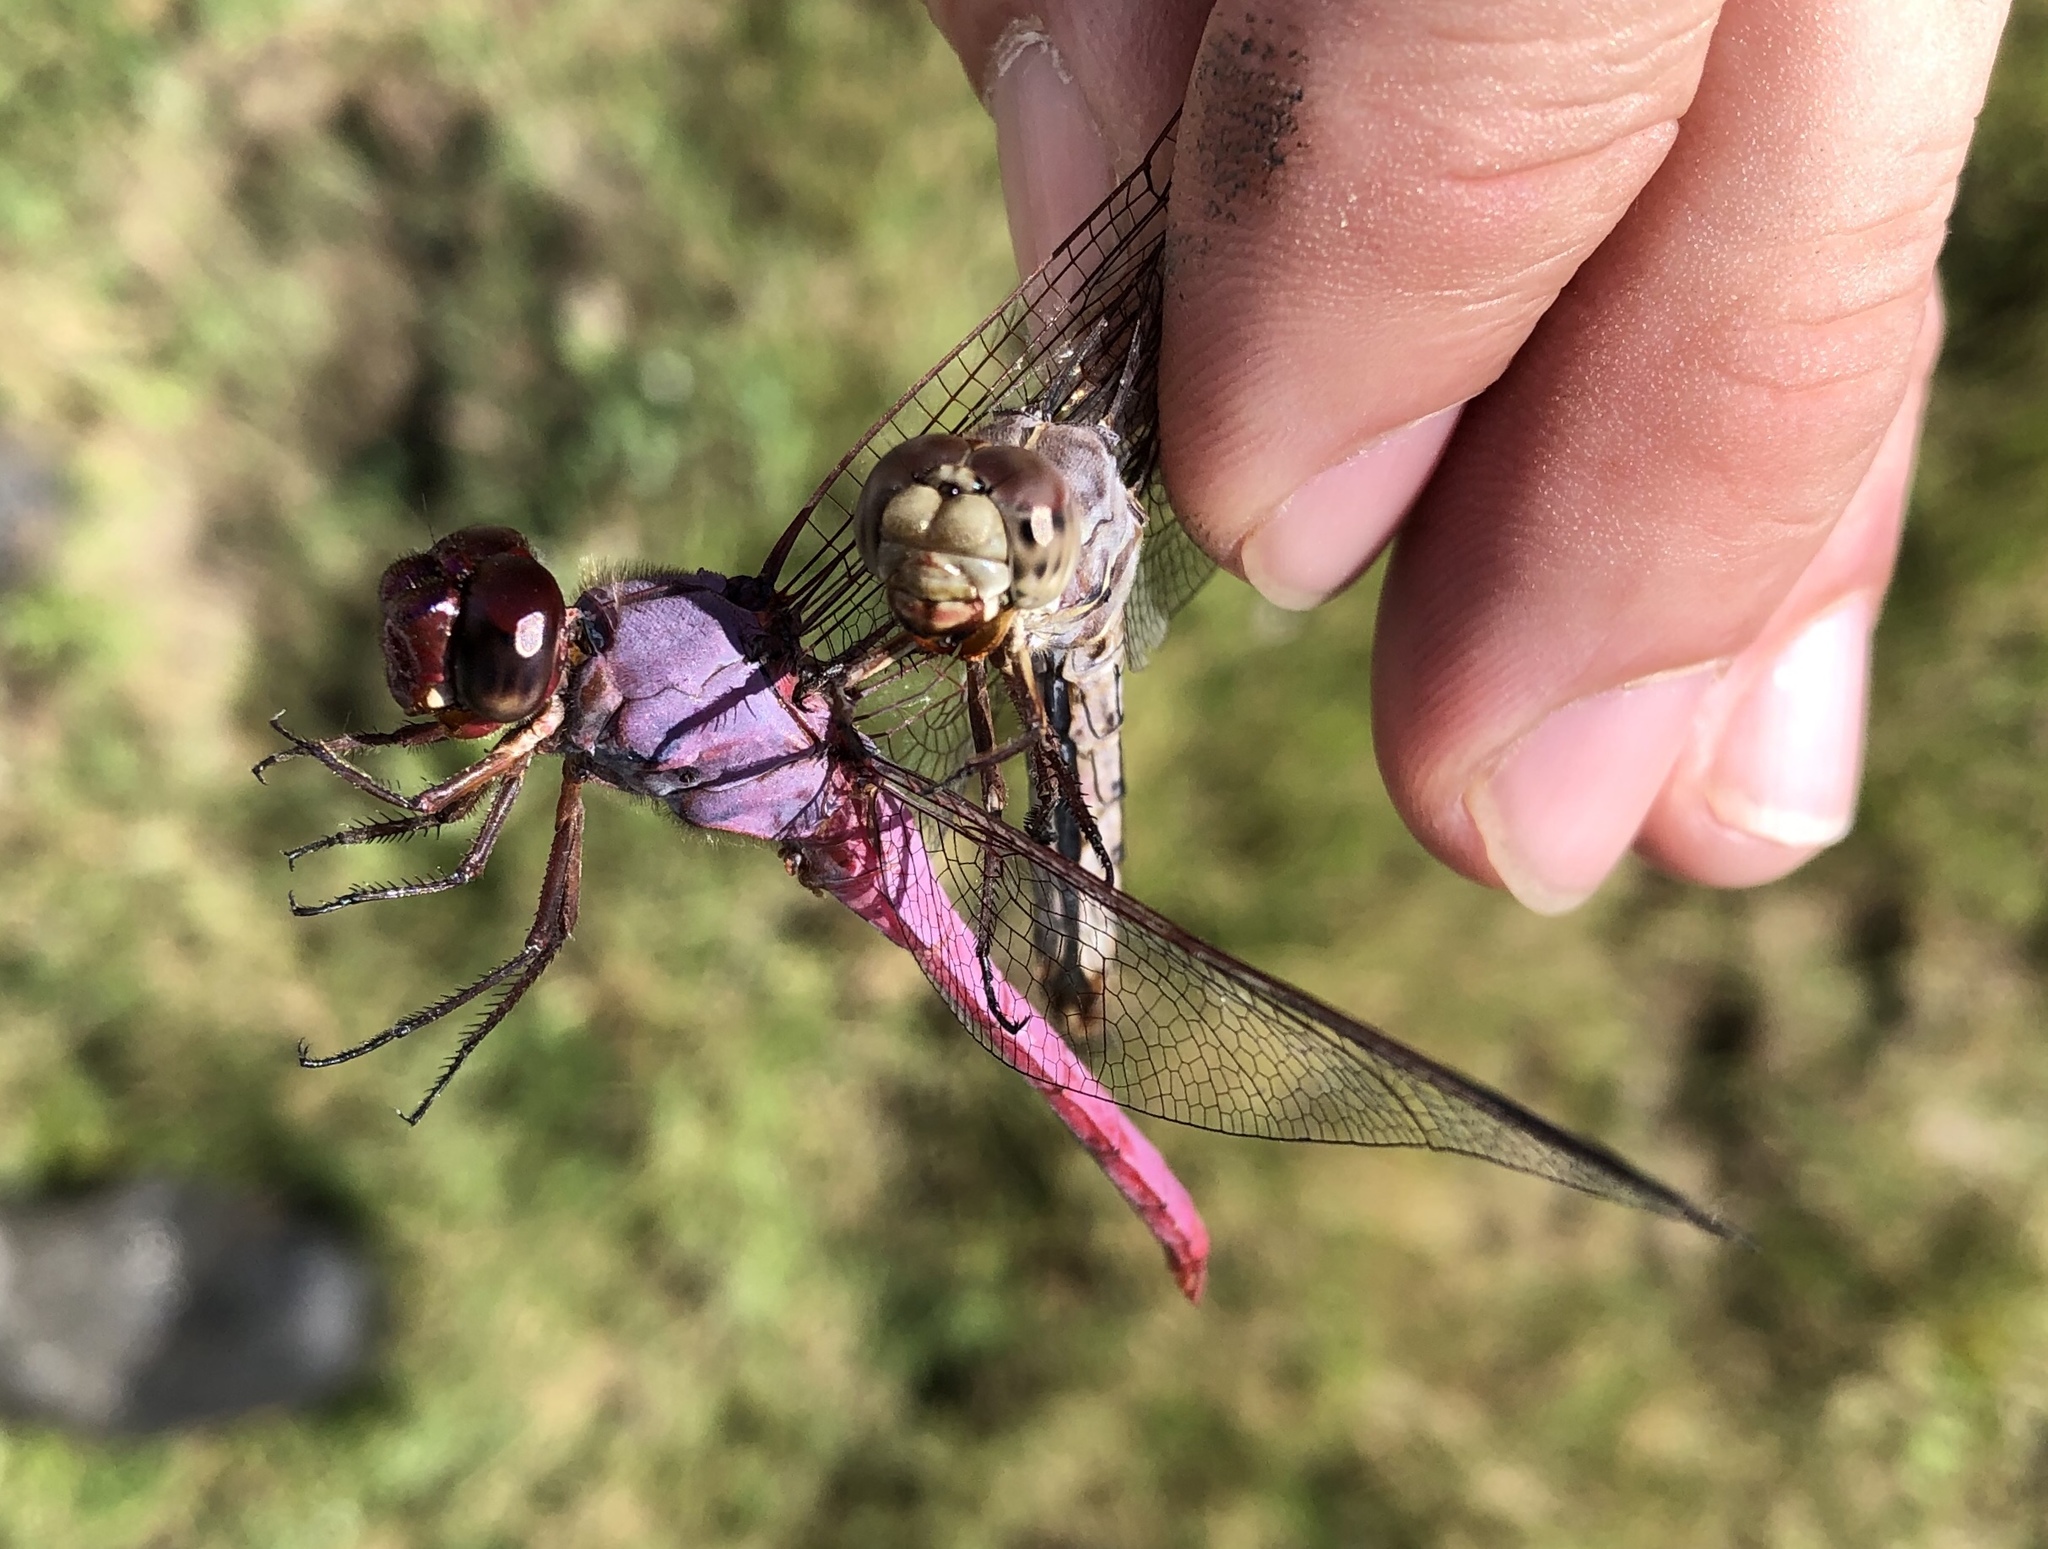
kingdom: Animalia
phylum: Arthropoda
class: Insecta
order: Odonata
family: Libellulidae
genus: Orthemis
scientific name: Orthemis ferruginea
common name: Roseate skimmer
